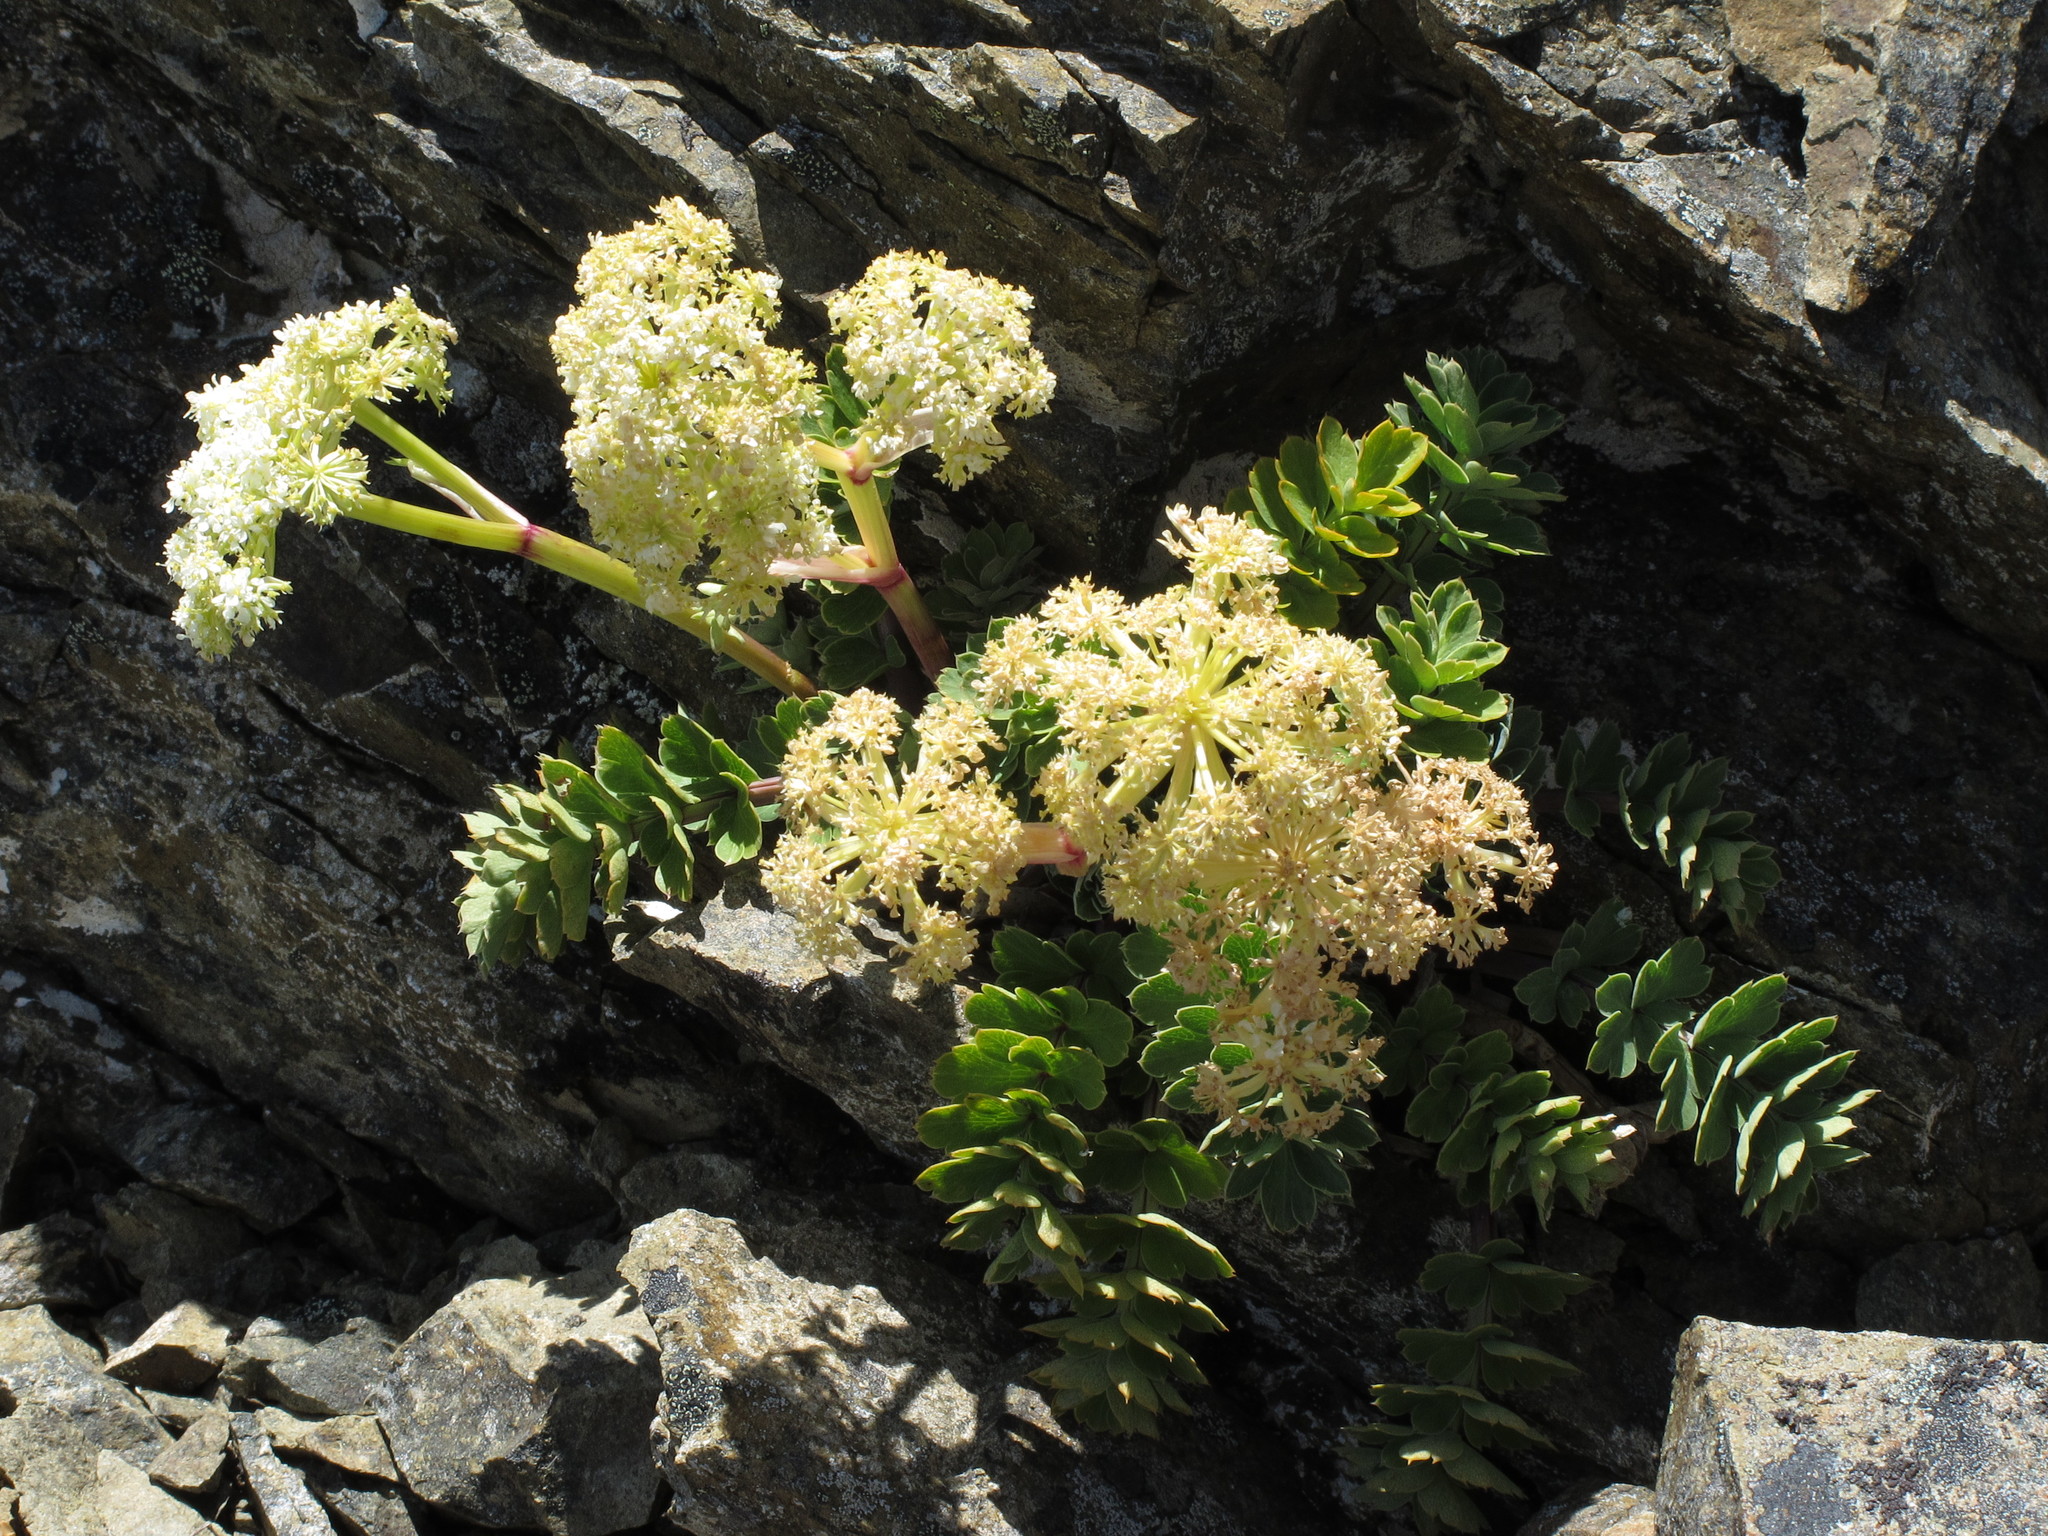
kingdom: Plantae
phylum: Tracheophyta
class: Magnoliopsida
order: Apiales
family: Apiaceae
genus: Anisotome
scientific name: Anisotome pilifera
